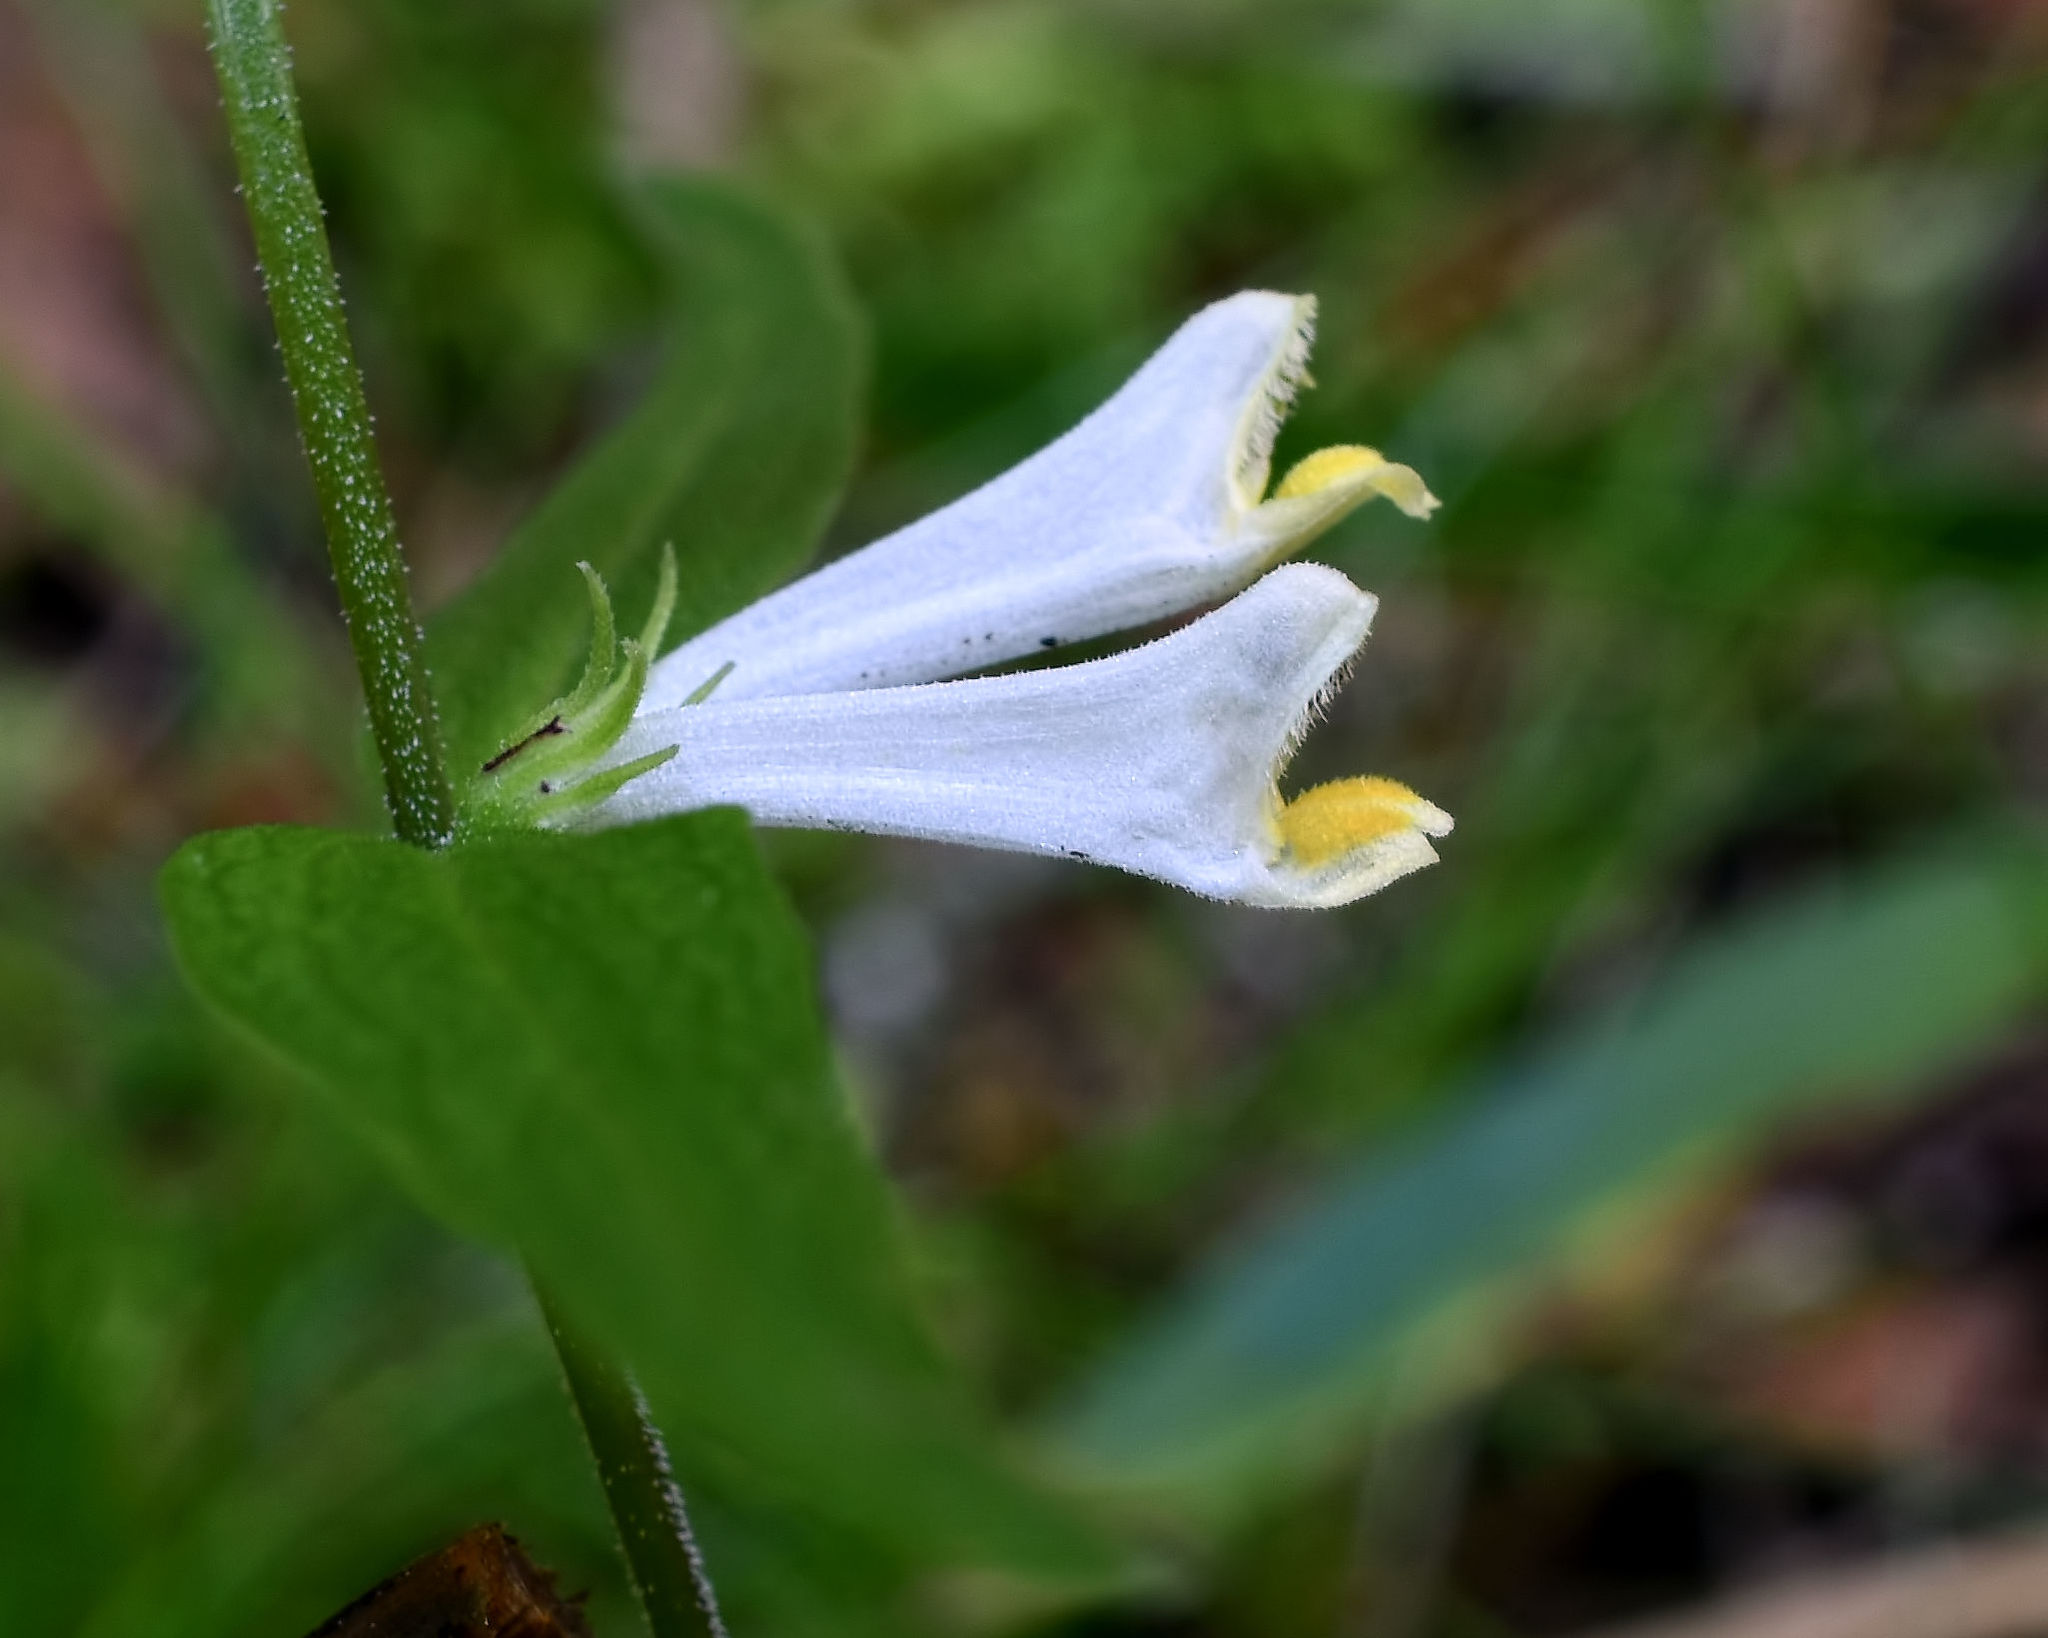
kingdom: Plantae
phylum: Tracheophyta
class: Magnoliopsida
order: Lamiales
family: Orobanchaceae
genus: Melampyrum
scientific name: Melampyrum lineare
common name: American cow-wheat
